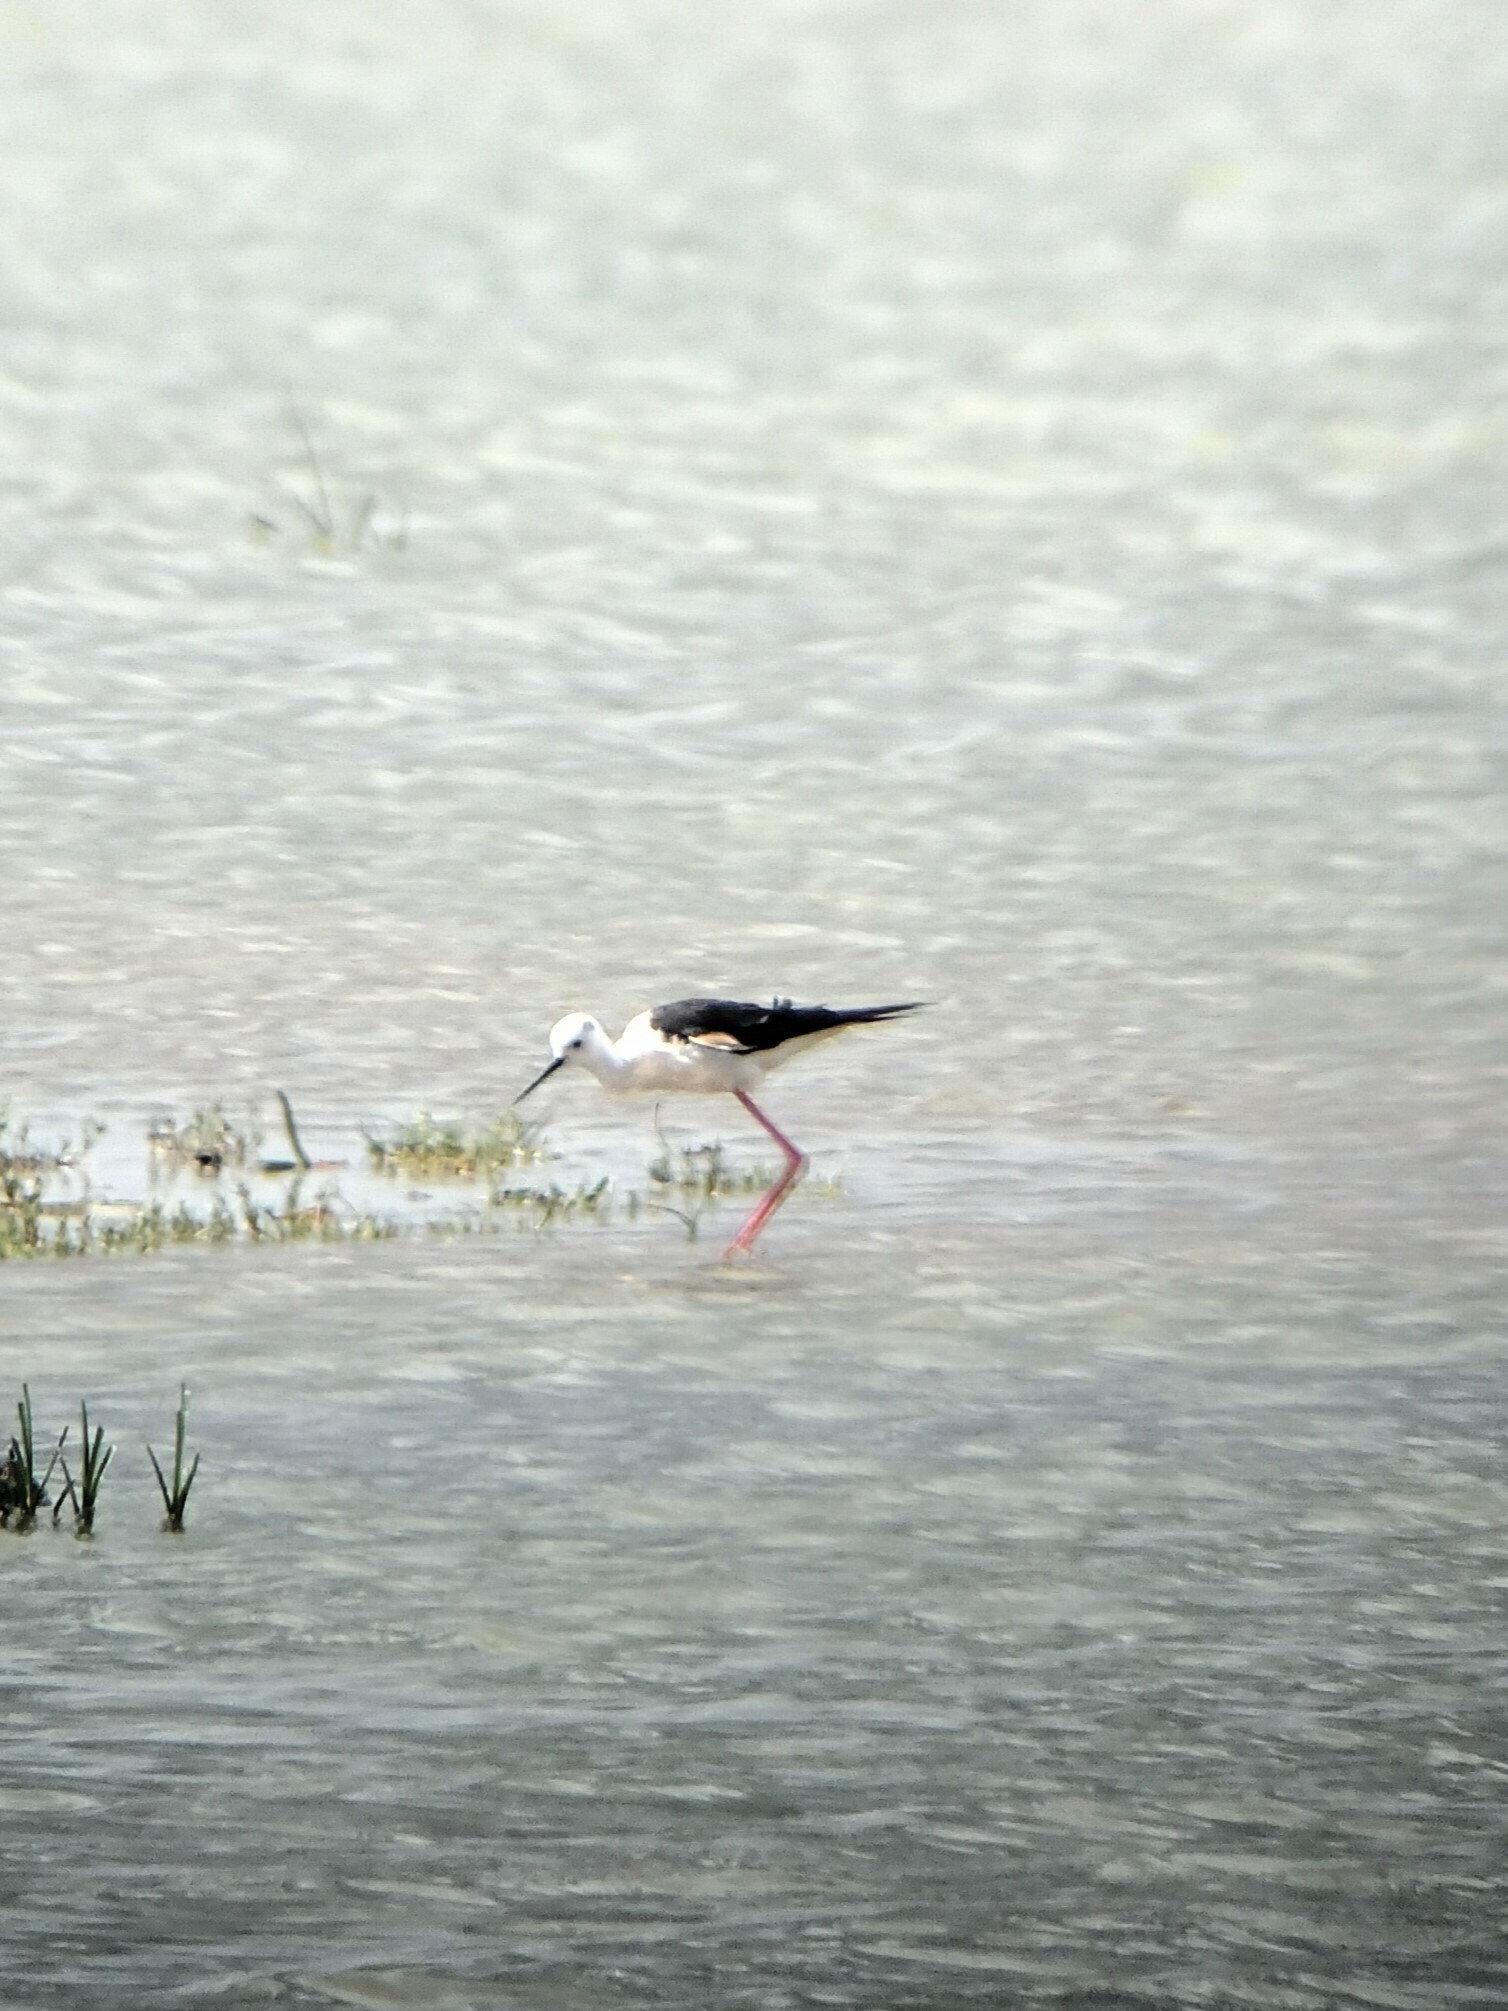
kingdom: Animalia
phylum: Chordata
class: Aves
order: Charadriiformes
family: Recurvirostridae
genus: Himantopus
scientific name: Himantopus himantopus
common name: Black-winged stilt
